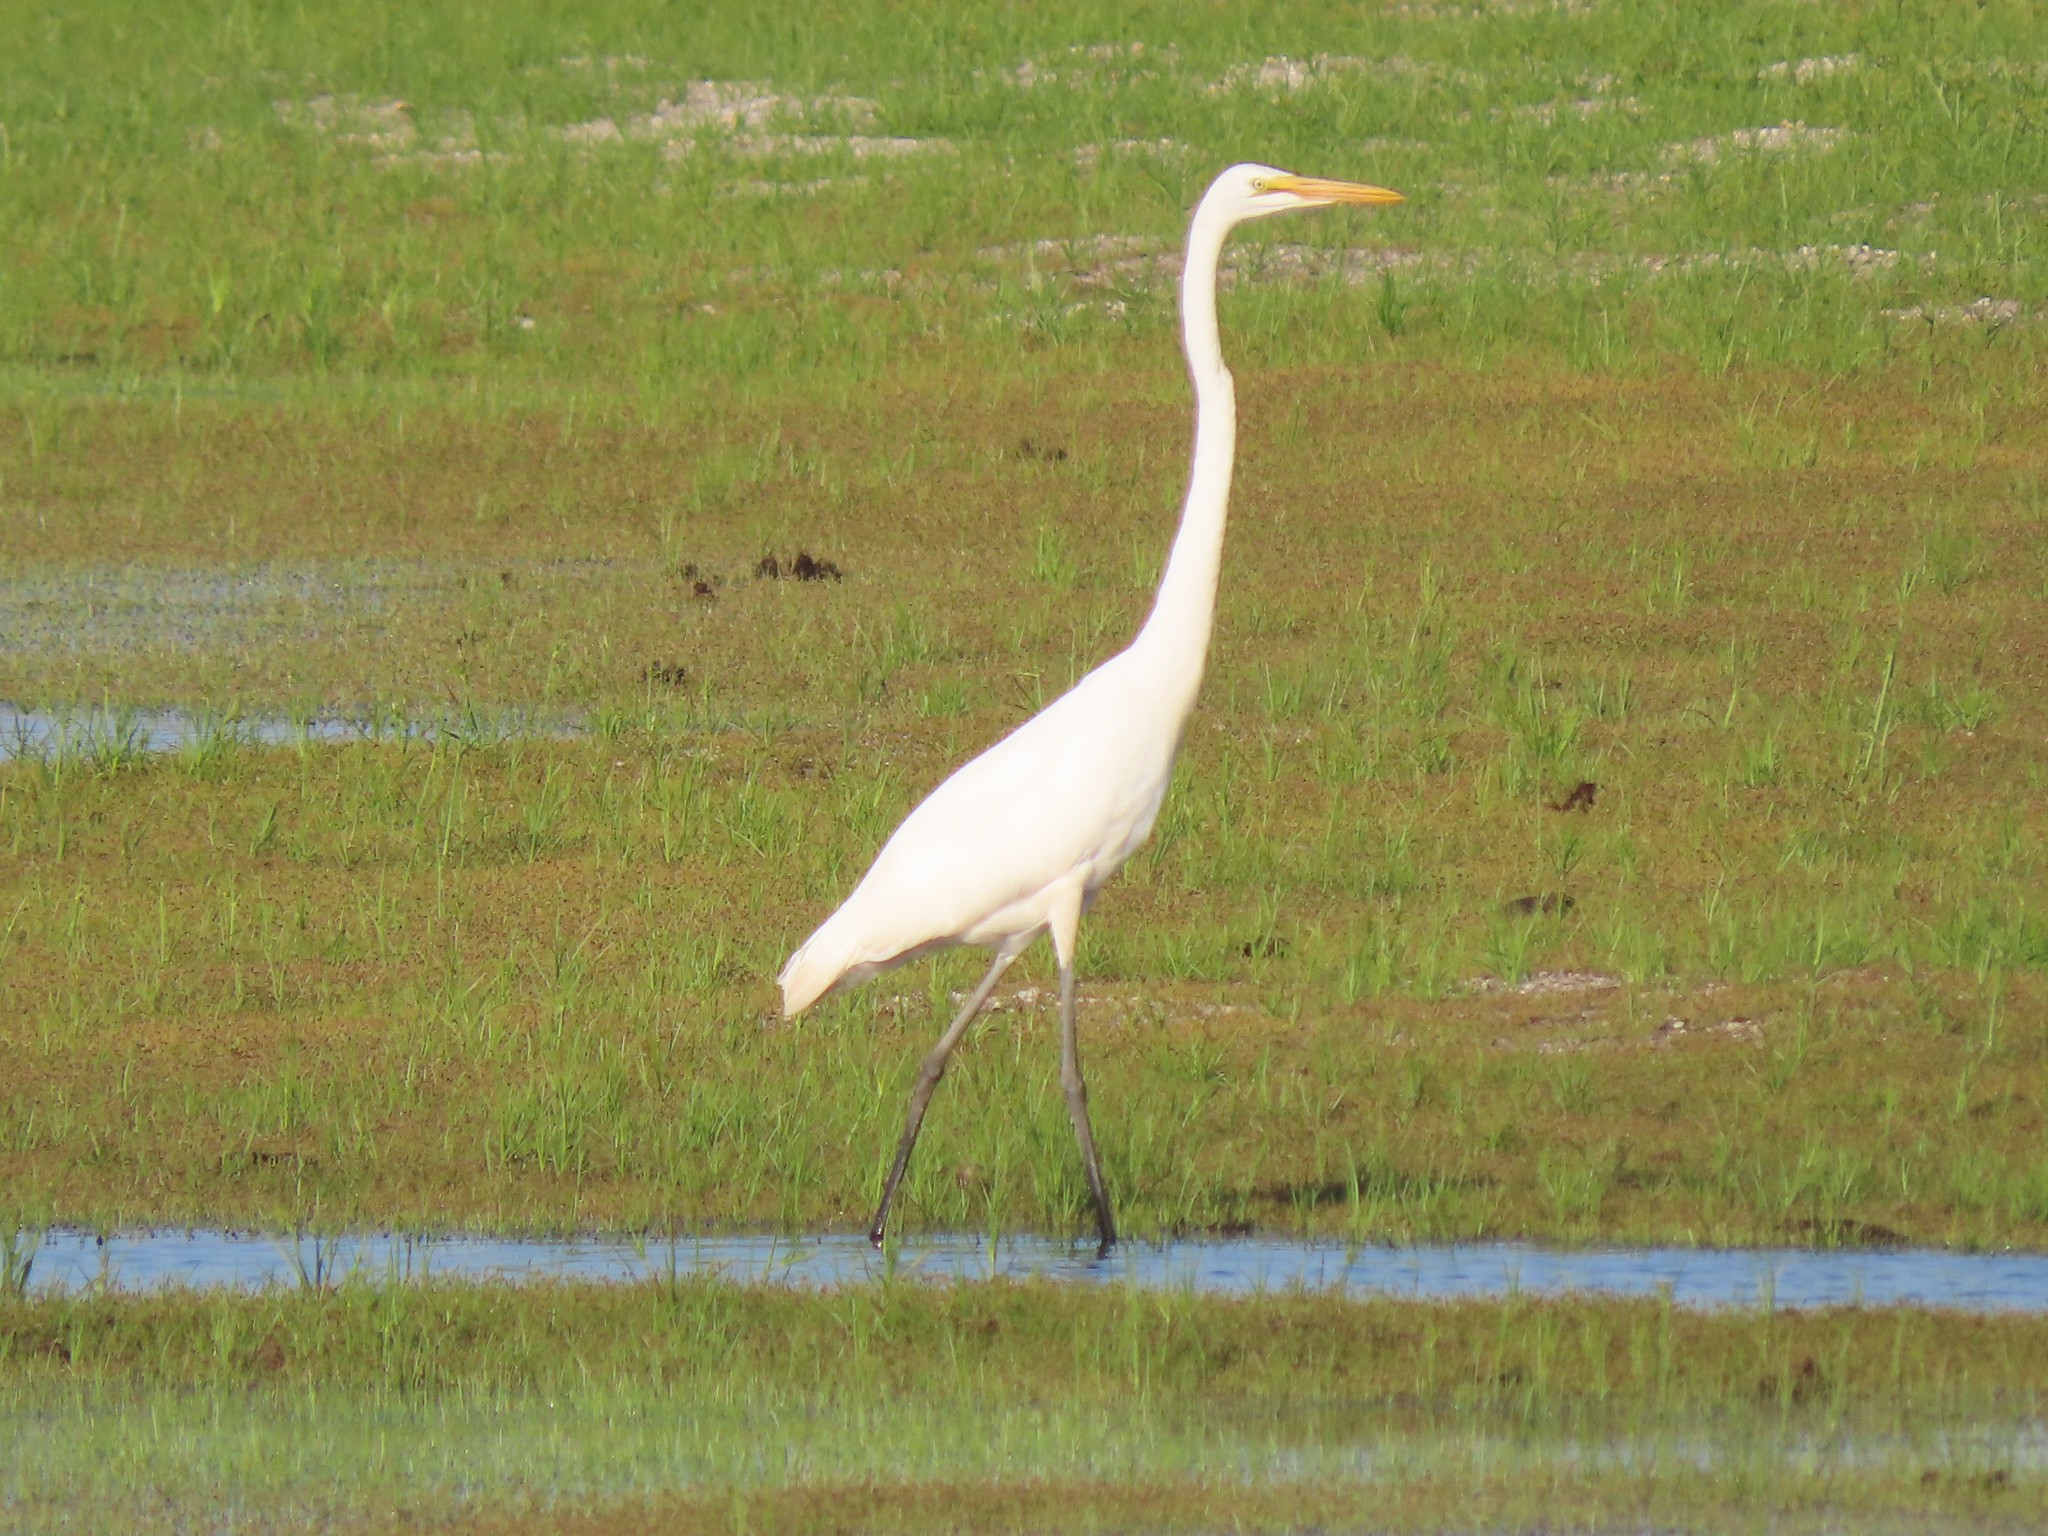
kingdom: Animalia
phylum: Chordata
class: Aves
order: Pelecaniformes
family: Ardeidae
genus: Ardea
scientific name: Ardea alba
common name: Great egret
